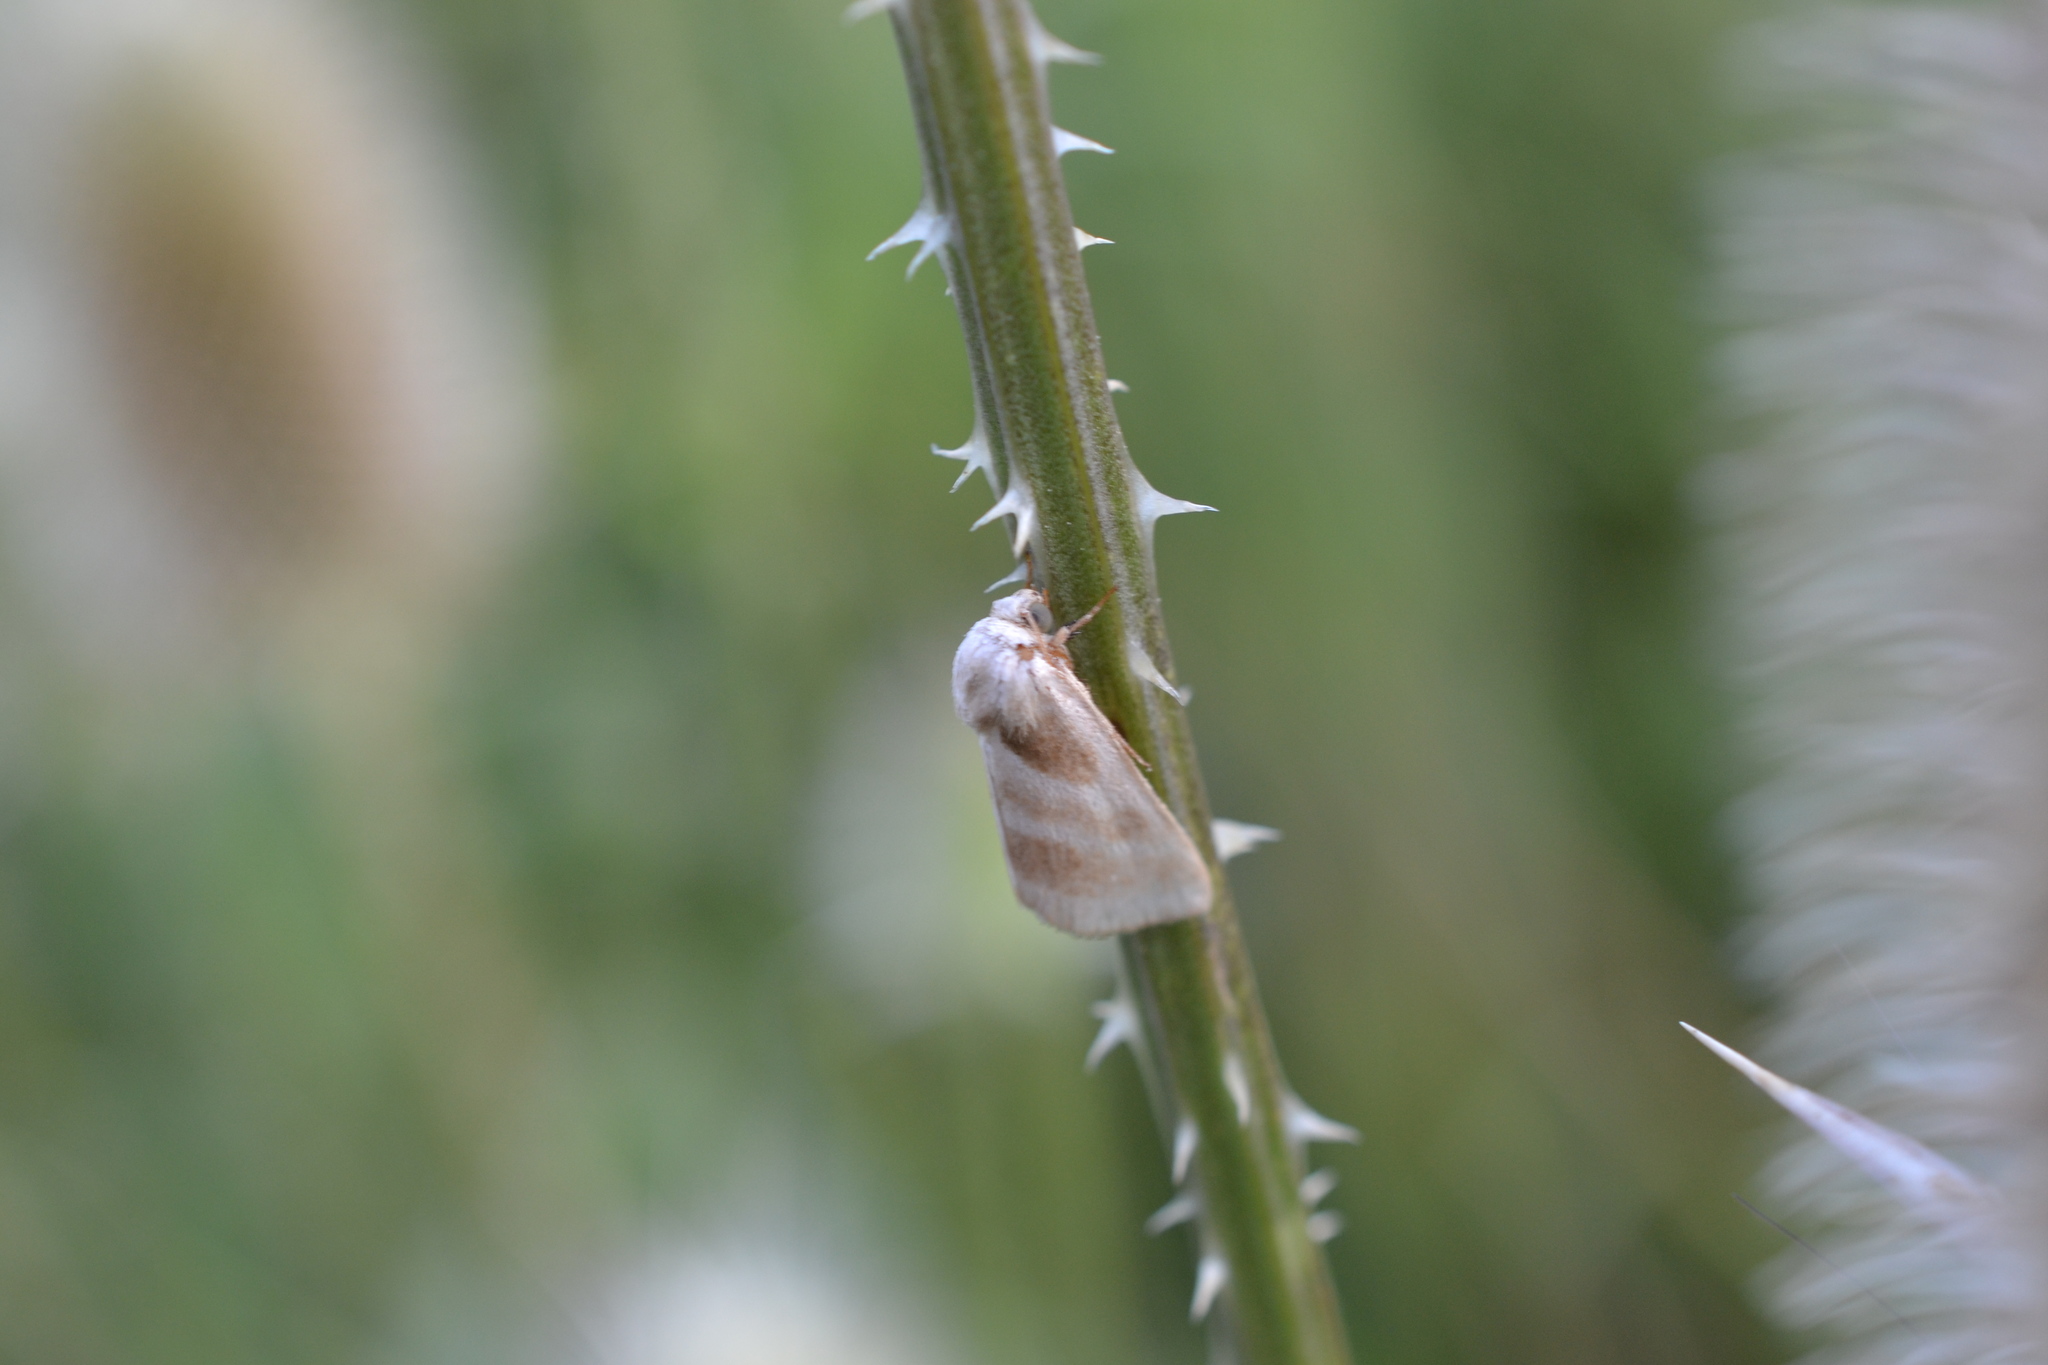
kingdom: Animalia
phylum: Arthropoda
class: Insecta
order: Lepidoptera
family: Noctuidae
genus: Schinia
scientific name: Schinia trifascia
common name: Three-lined flower moth
